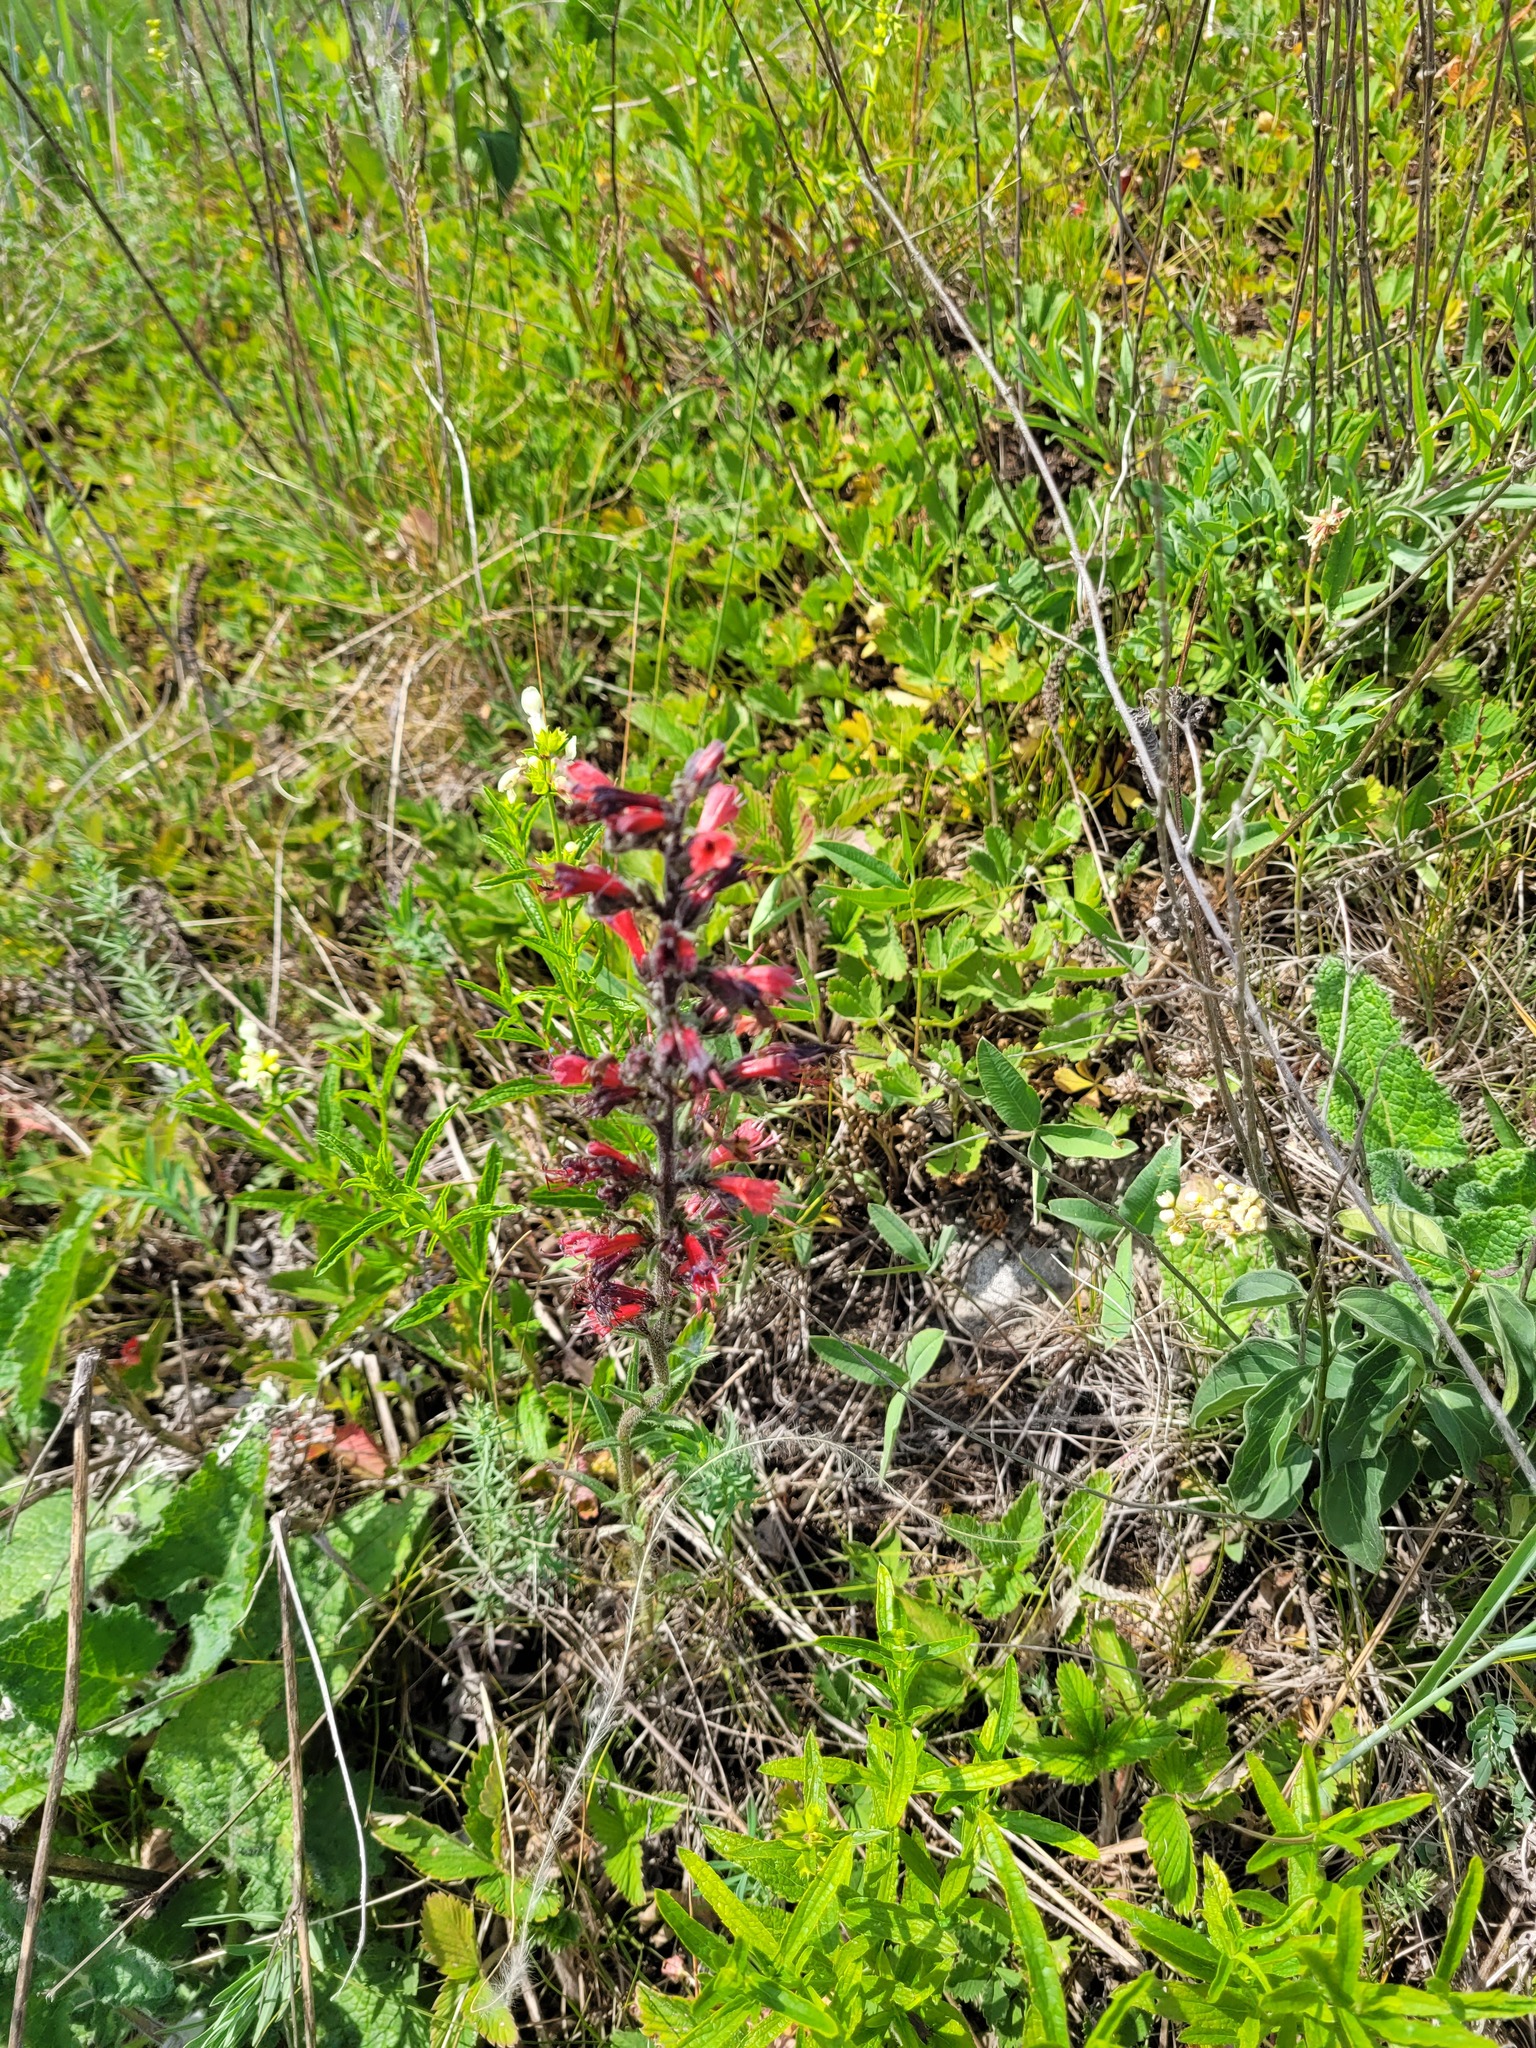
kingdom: Plantae
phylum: Tracheophyta
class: Magnoliopsida
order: Boraginales
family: Boraginaceae
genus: Pontechium
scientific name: Pontechium maculatum
